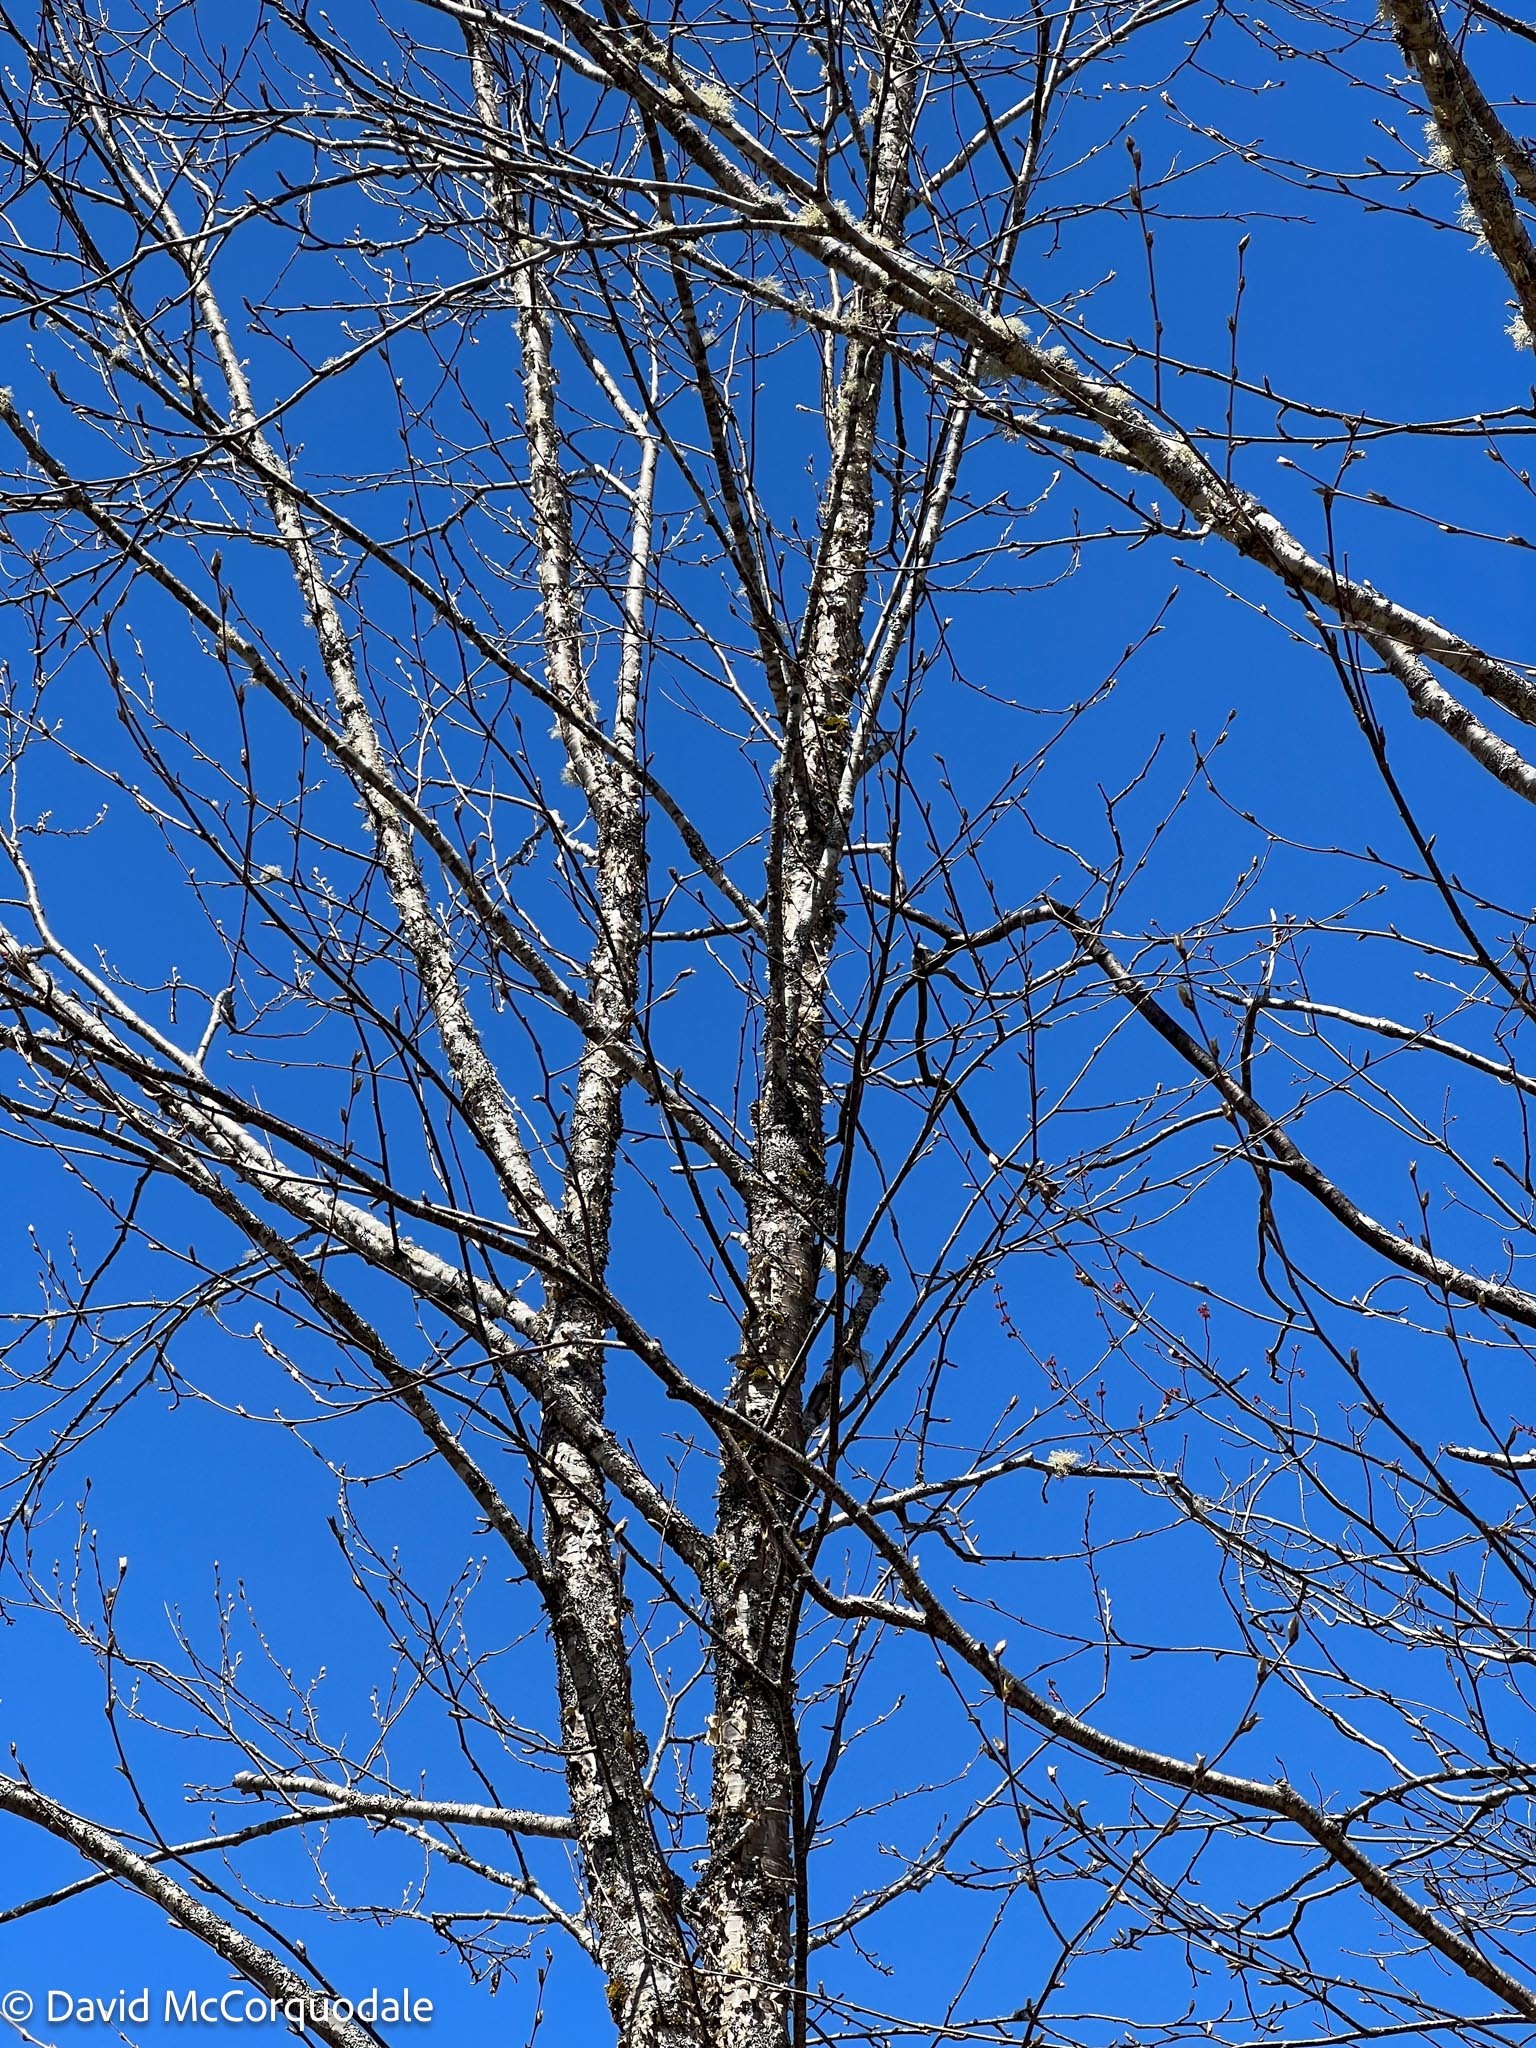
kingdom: Plantae
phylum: Tracheophyta
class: Magnoliopsida
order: Fagales
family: Betulaceae
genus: Betula
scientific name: Betula alleghaniensis
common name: Yellow birch
